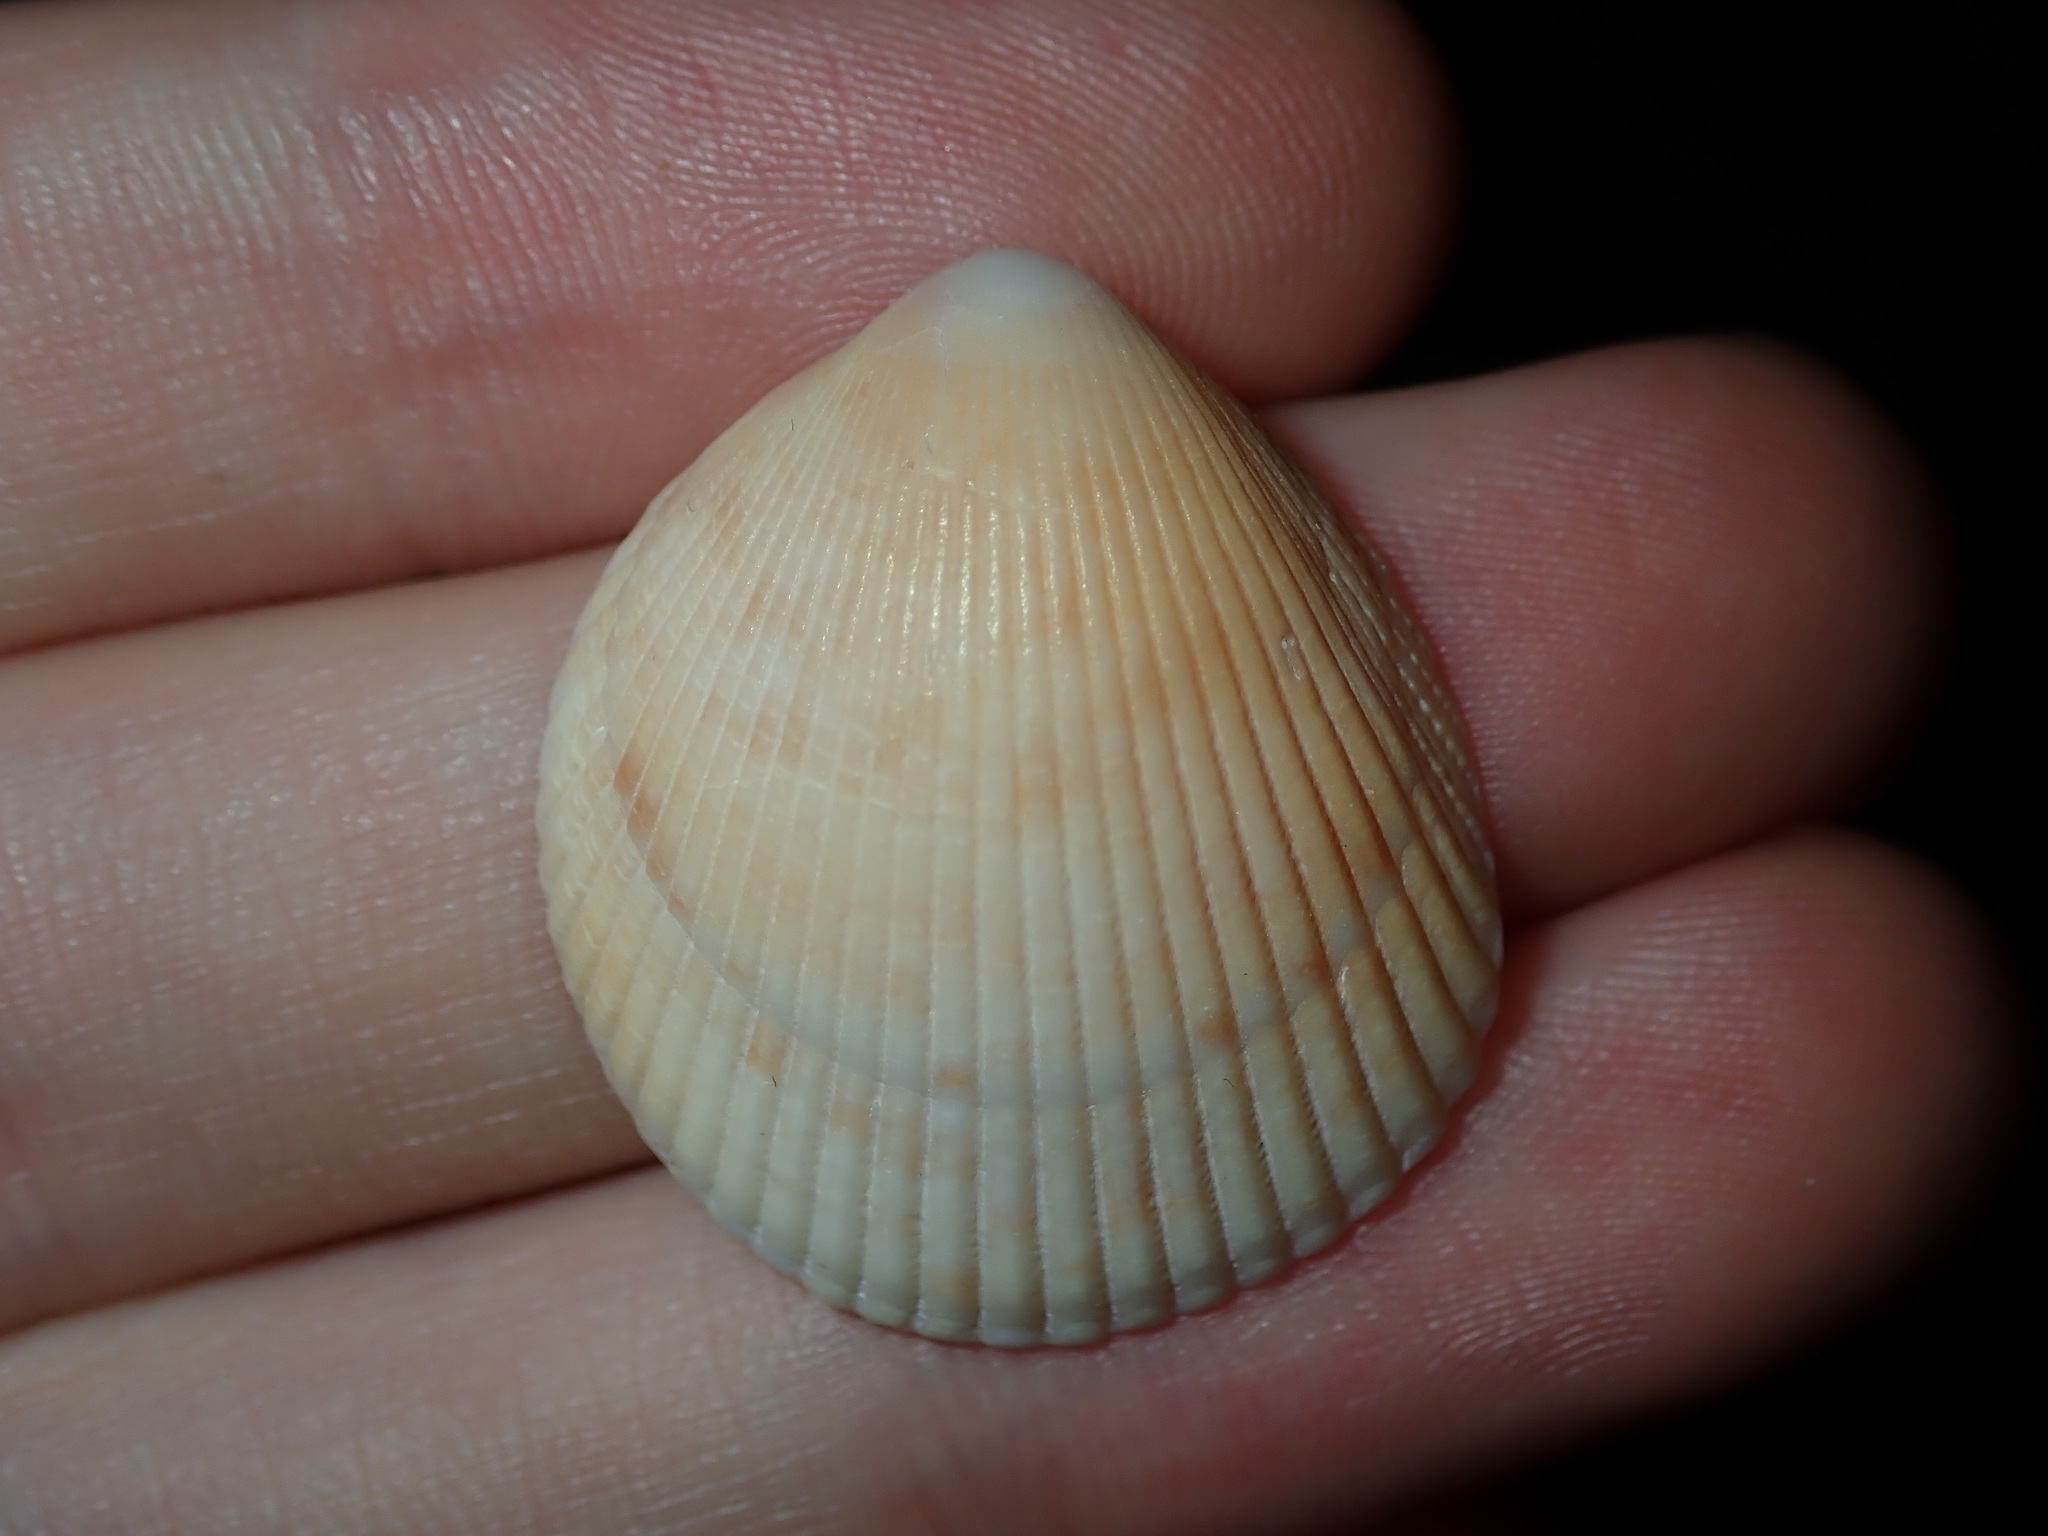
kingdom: Animalia
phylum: Mollusca
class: Bivalvia
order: Cardiida
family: Cardiidae
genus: Acrosterigma
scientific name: Acrosterigma cygnorum
